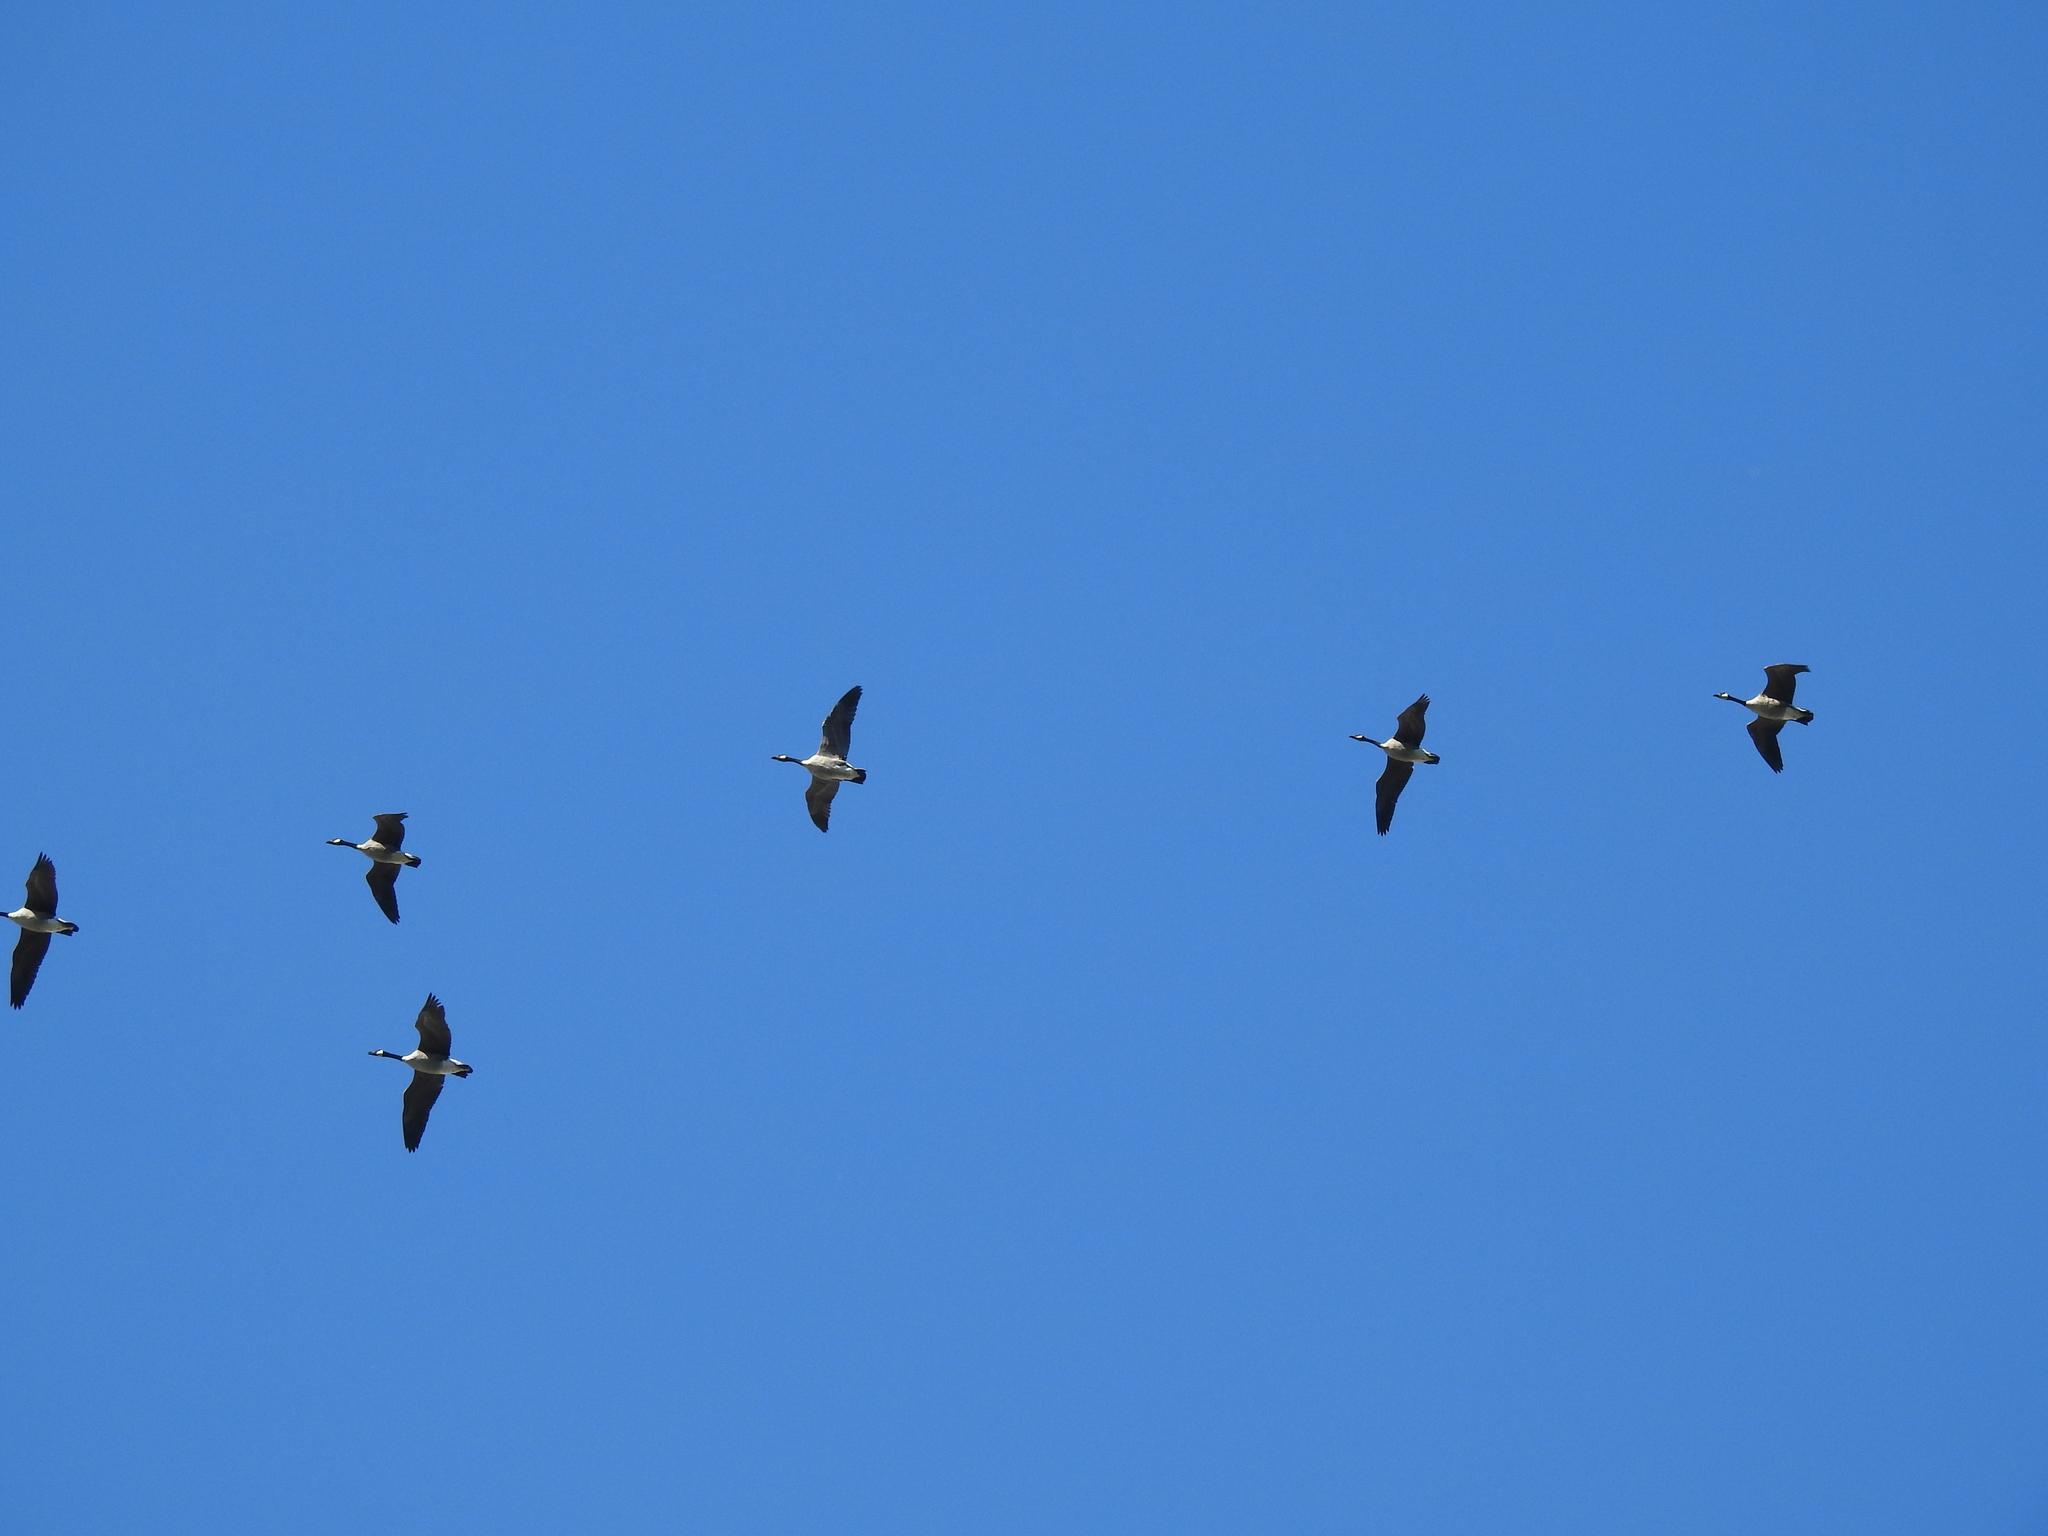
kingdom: Animalia
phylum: Chordata
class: Aves
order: Anseriformes
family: Anatidae
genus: Branta
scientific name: Branta canadensis
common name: Canada goose
